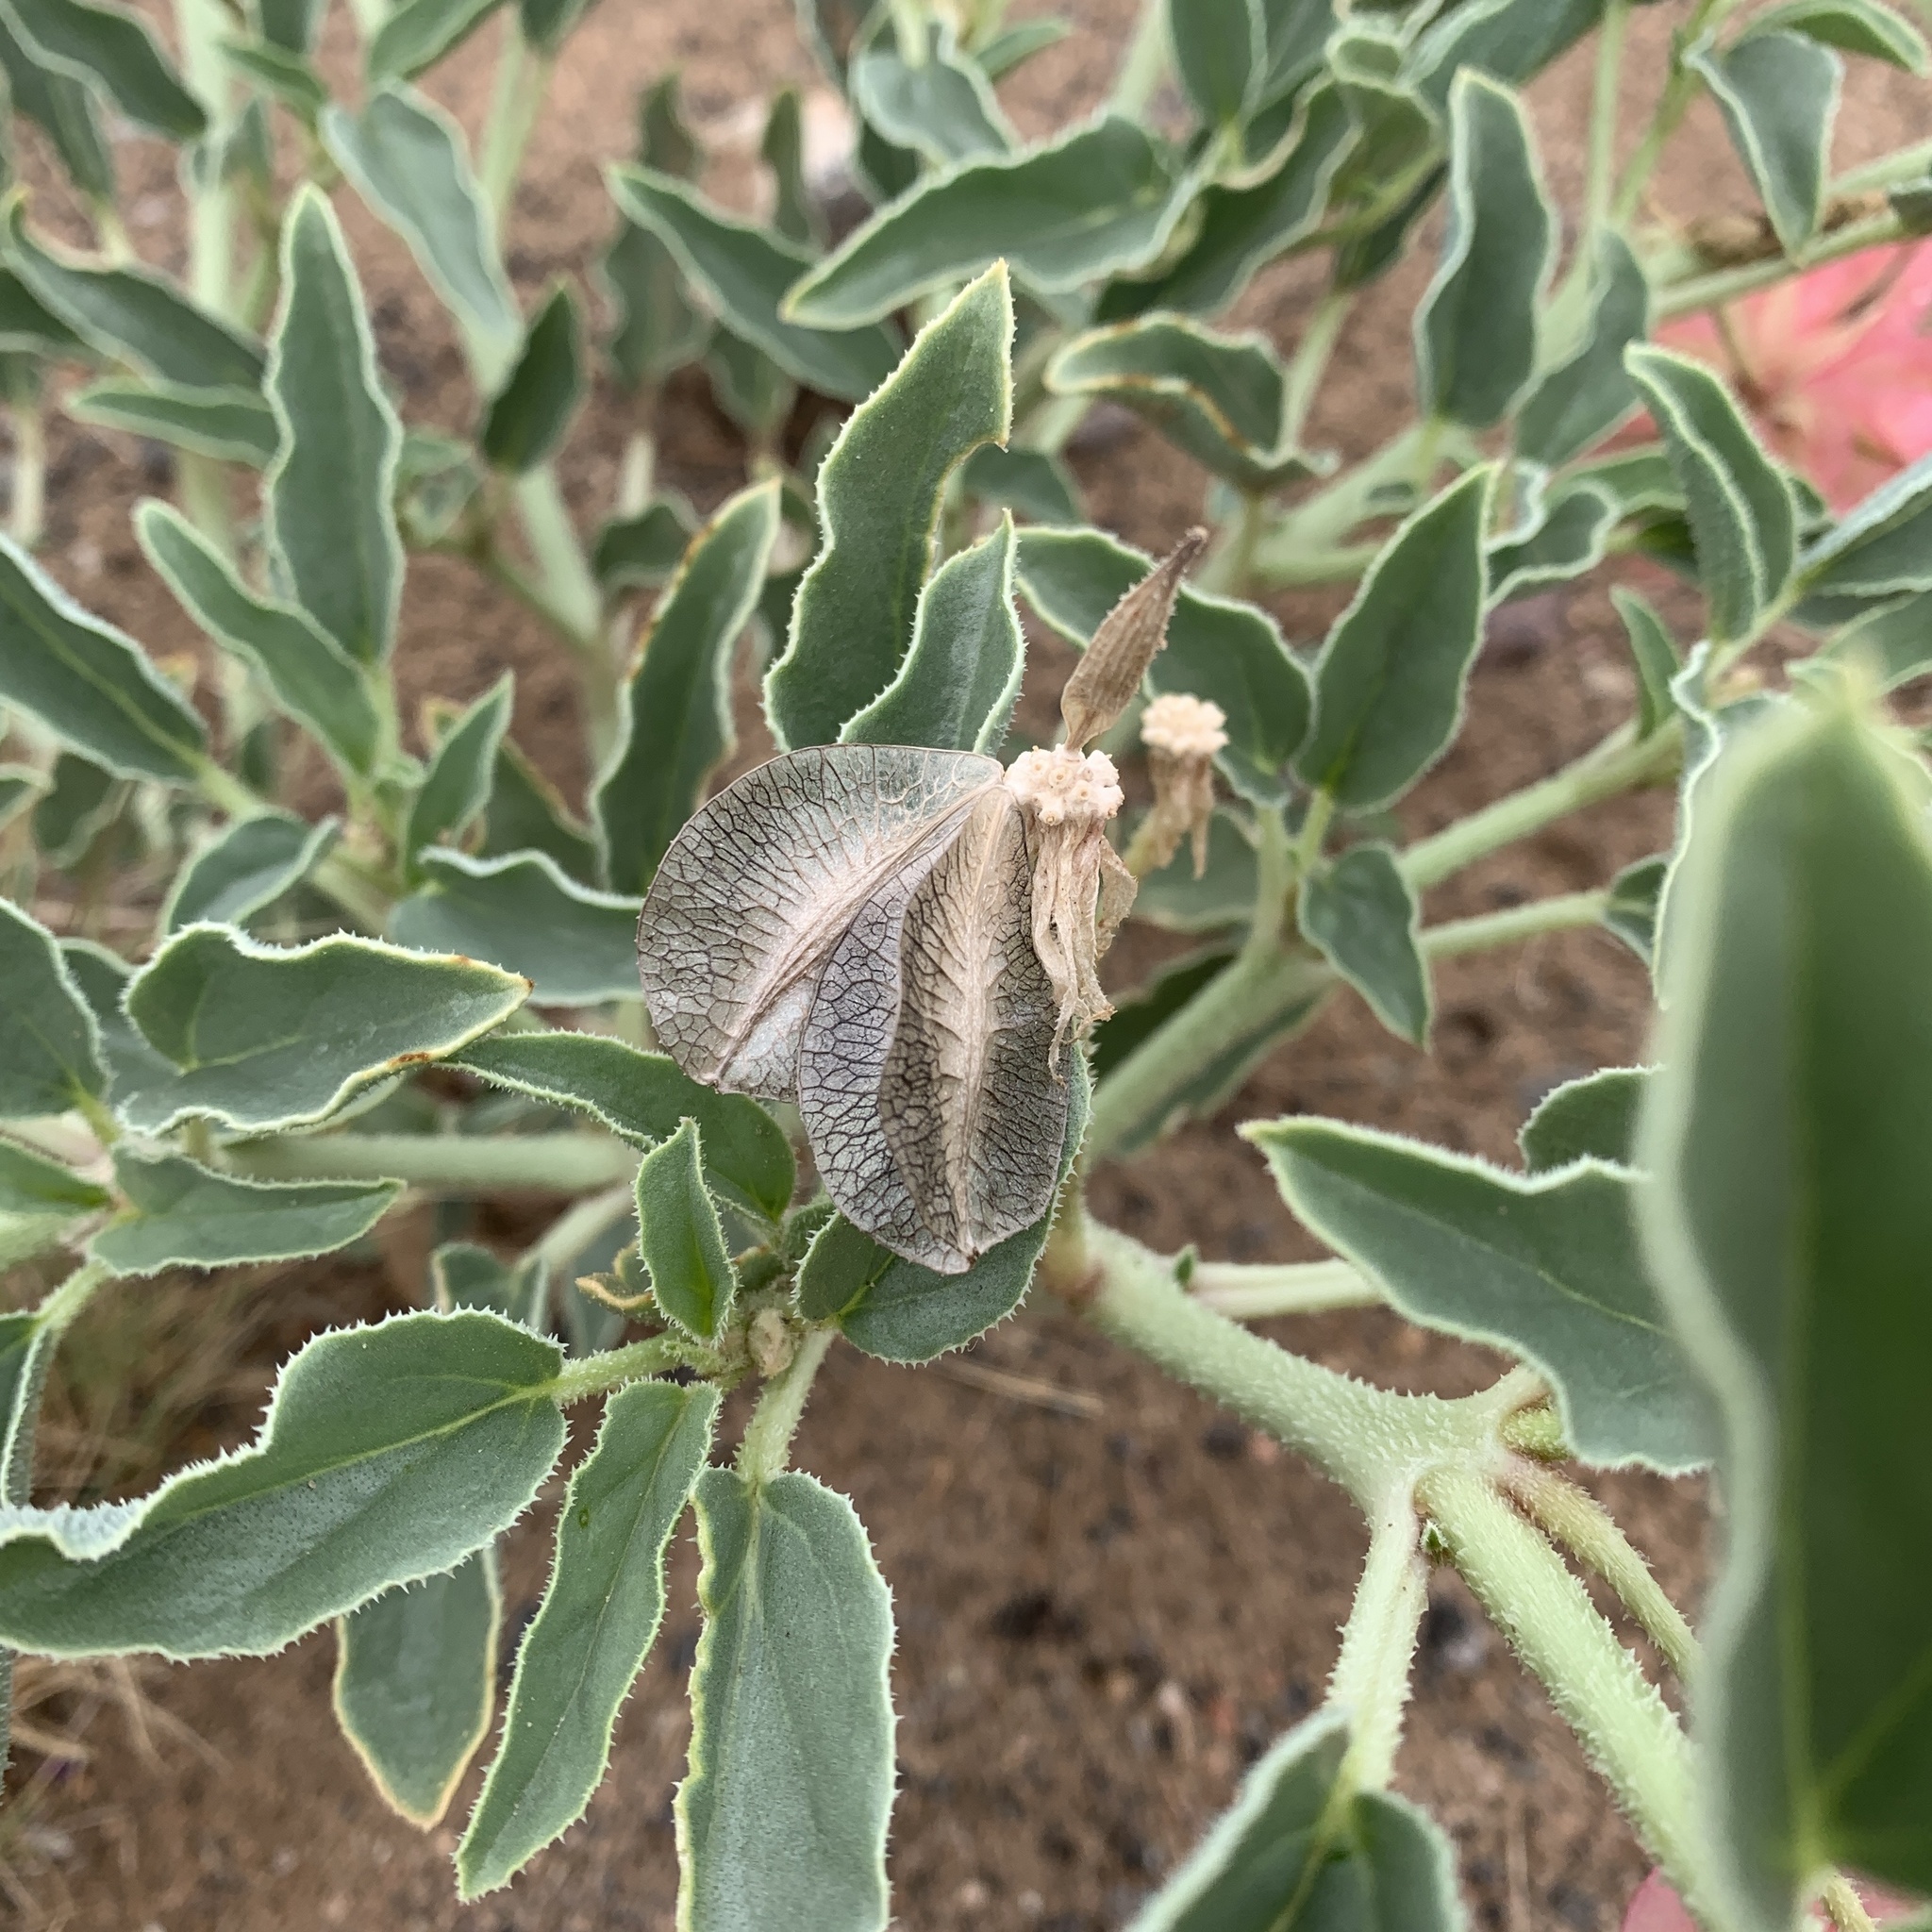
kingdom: Plantae
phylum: Tracheophyta
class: Magnoliopsida
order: Caryophyllales
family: Nyctaginaceae
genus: Tripterocalyx
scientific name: Tripterocalyx carneus
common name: Winged sandpuffs
